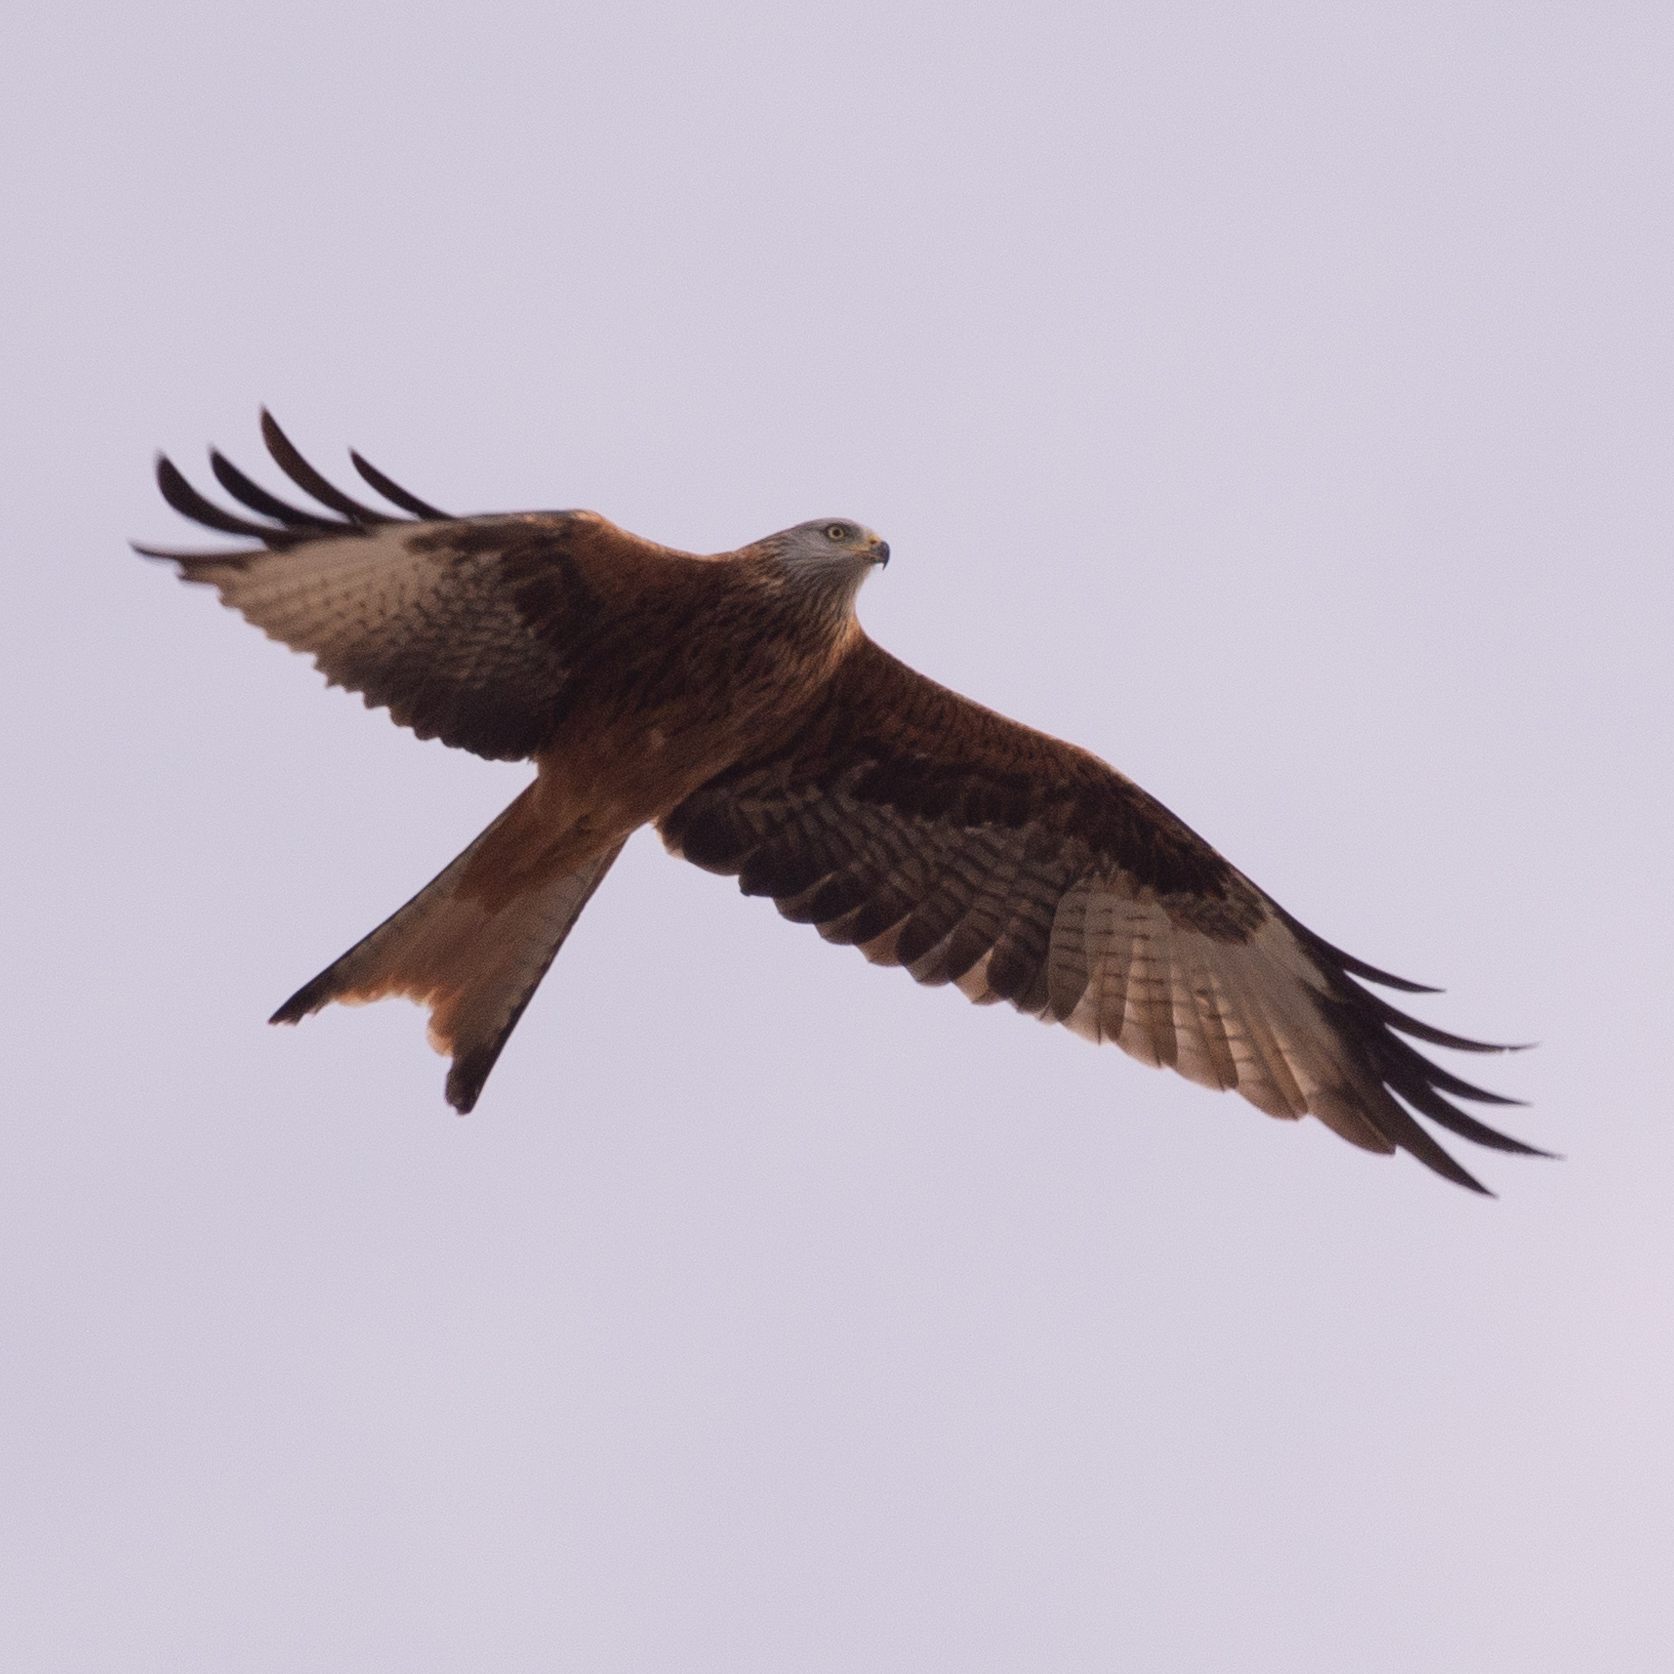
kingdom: Animalia
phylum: Chordata
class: Aves
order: Accipitriformes
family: Accipitridae
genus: Milvus
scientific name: Milvus milvus
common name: Red kite
